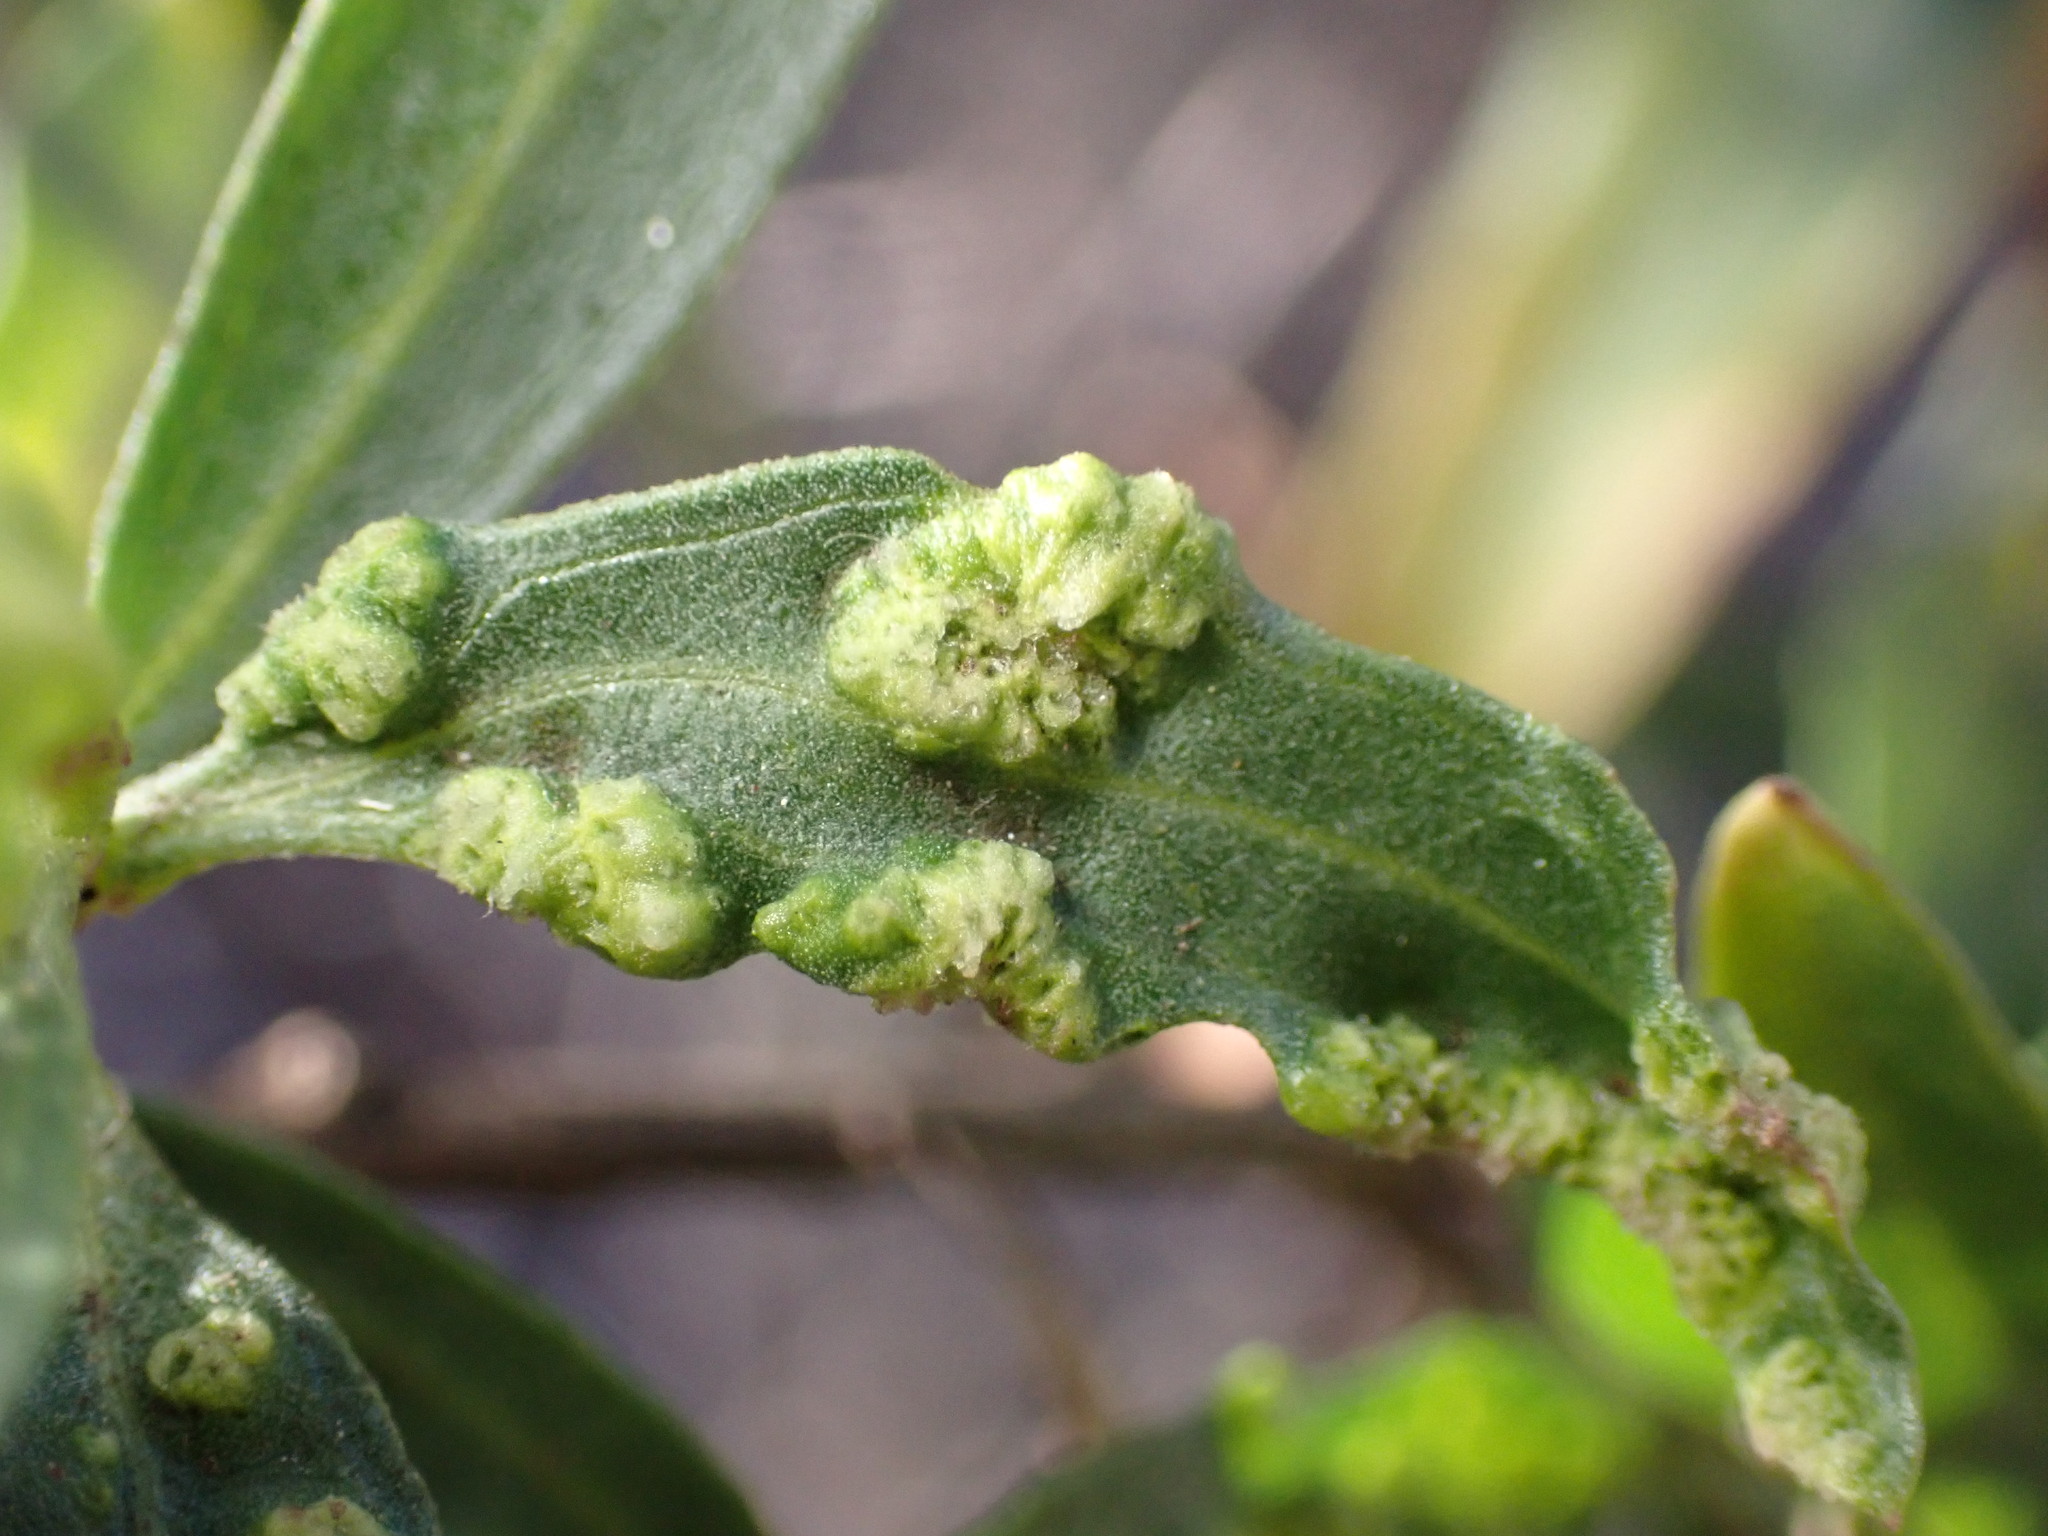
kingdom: Animalia
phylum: Arthropoda
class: Arachnida
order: Trombidiformes
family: Eriophyidae
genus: Aceria
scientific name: Aceria
